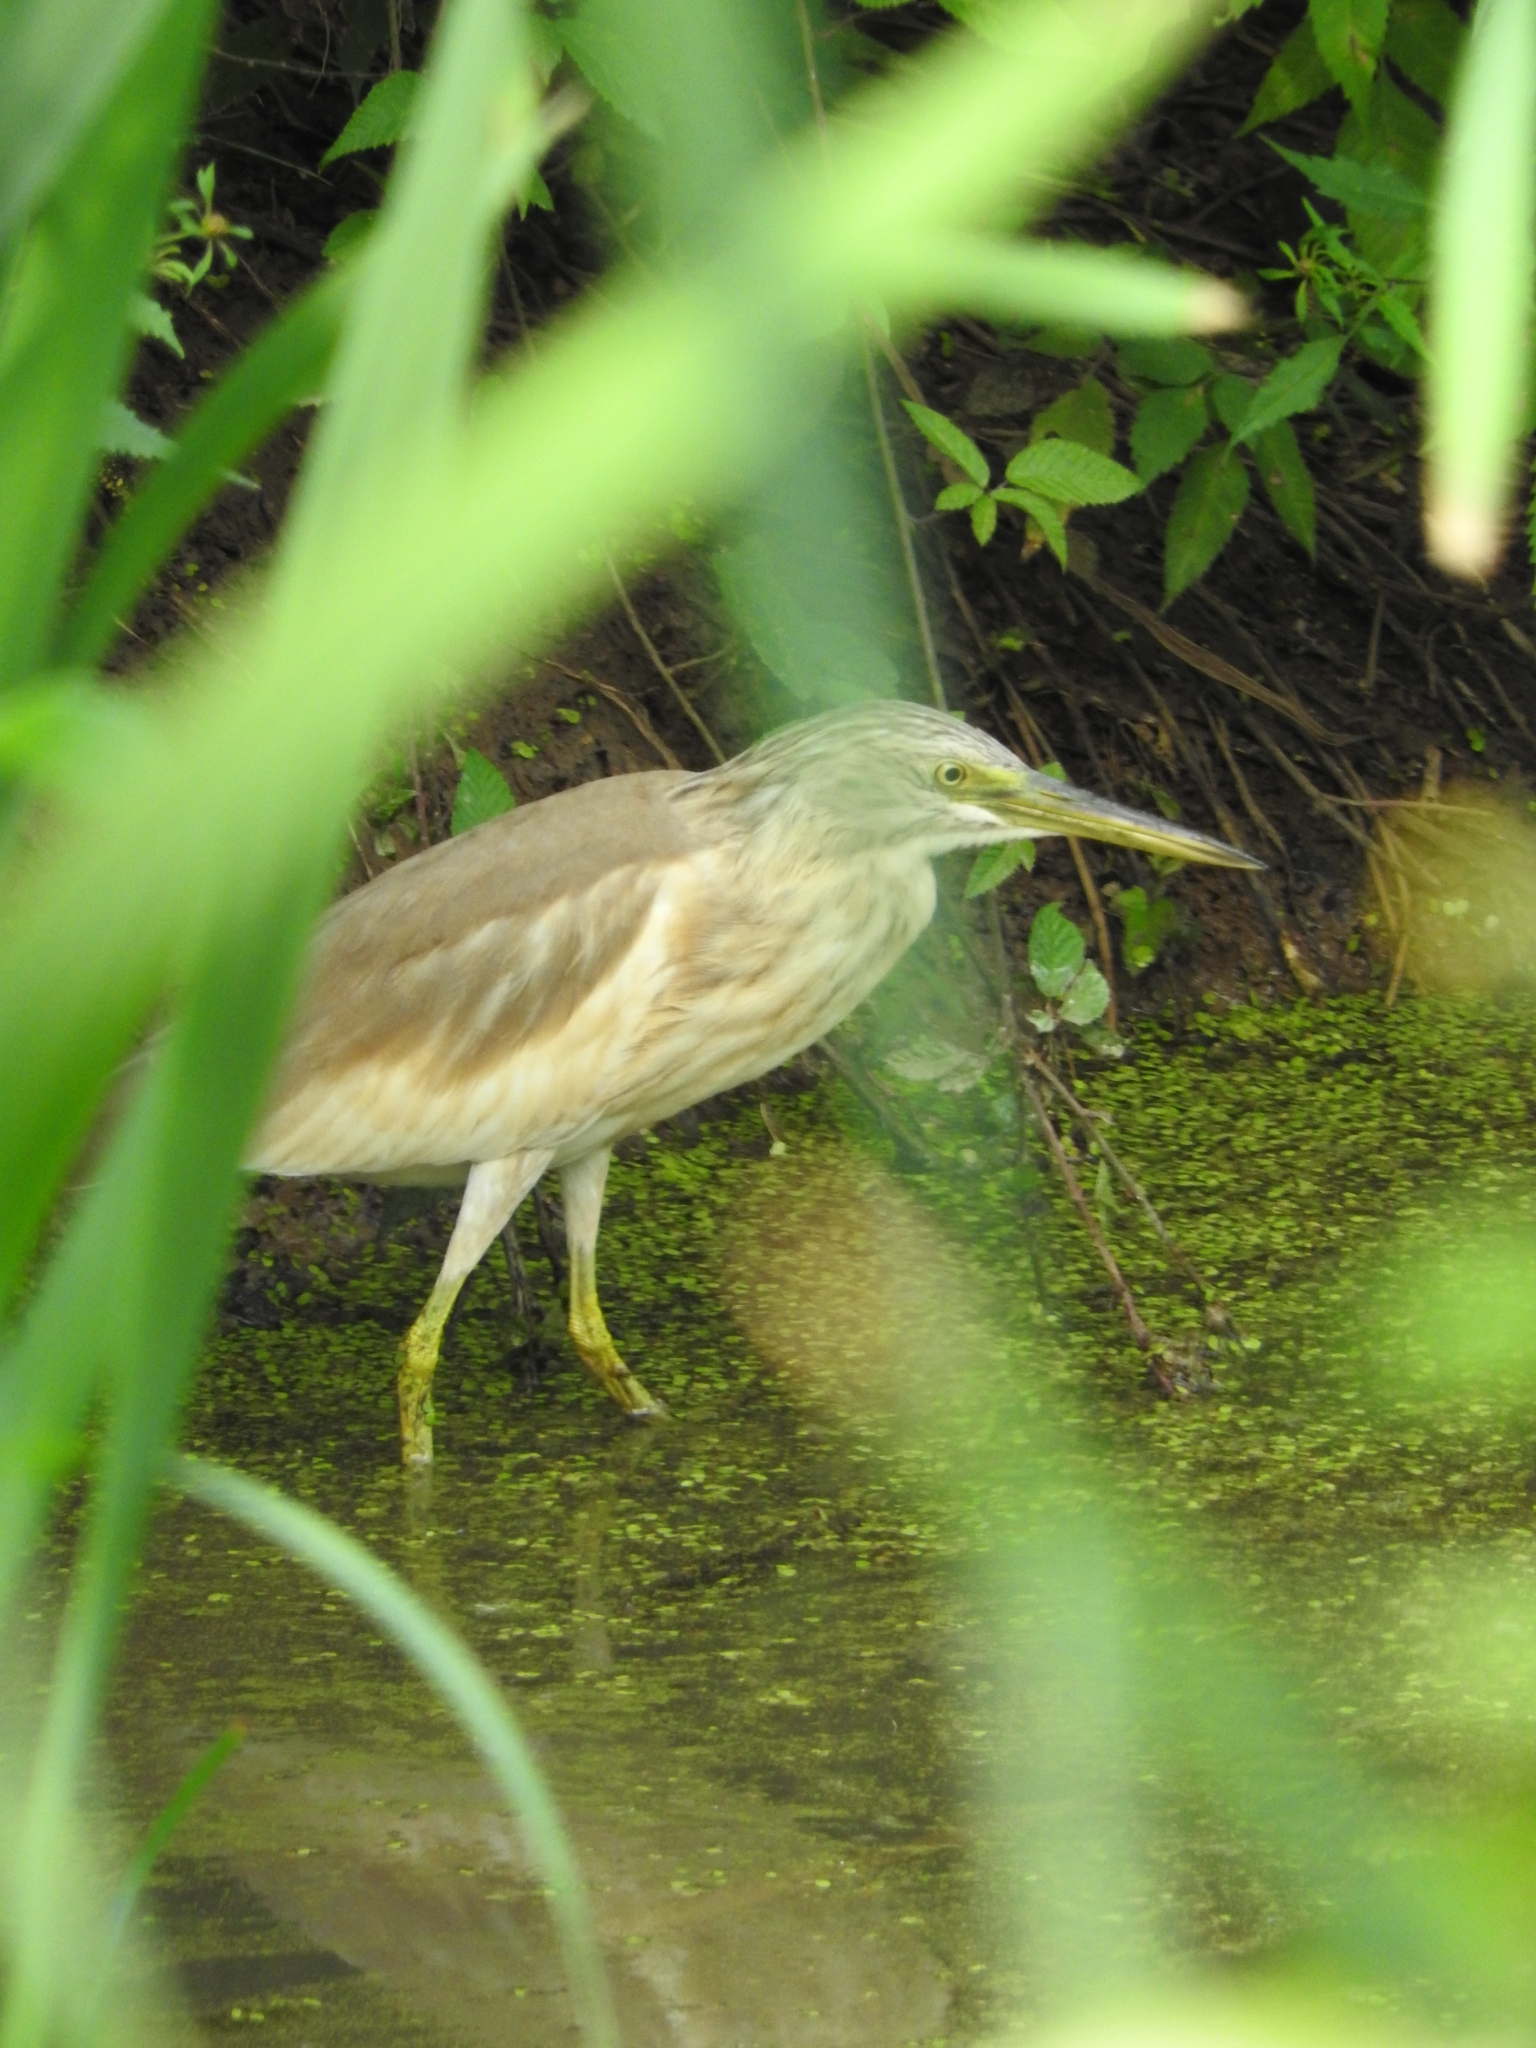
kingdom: Animalia
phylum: Chordata
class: Aves
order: Pelecaniformes
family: Ardeidae
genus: Ardeola
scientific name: Ardeola ralloides
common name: Squacco heron
